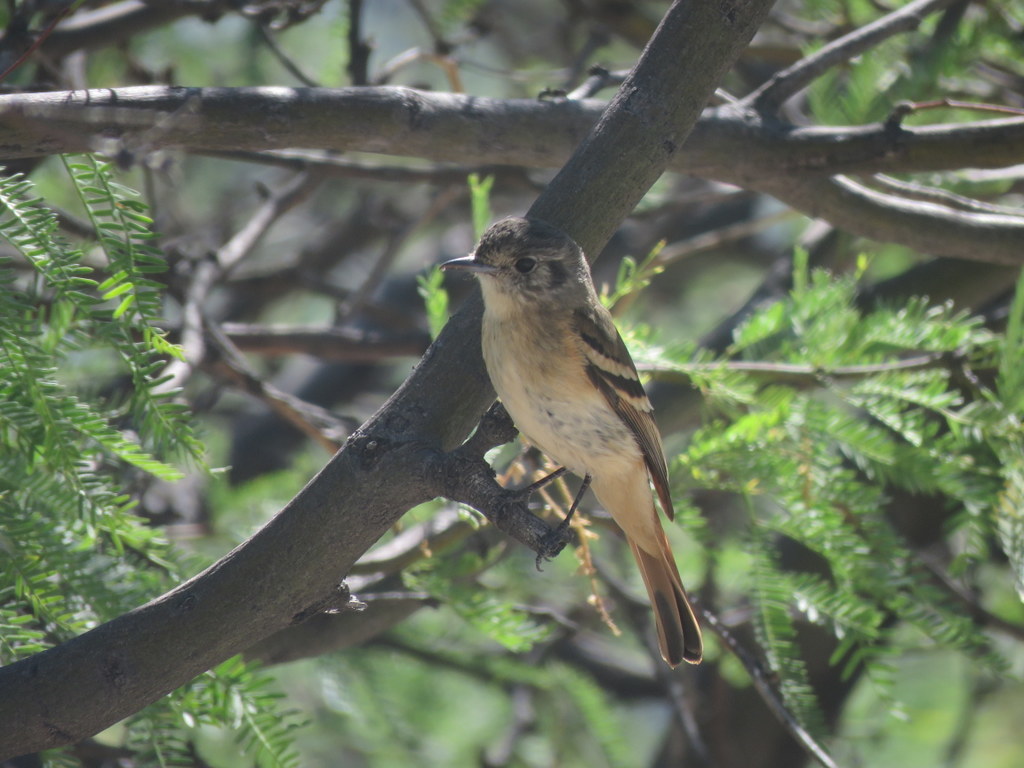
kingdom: Animalia
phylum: Chordata
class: Aves
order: Passeriformes
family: Tyrannidae
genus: Knipolegus
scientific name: Knipolegus aterrimus
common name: White-winged black tyrant
